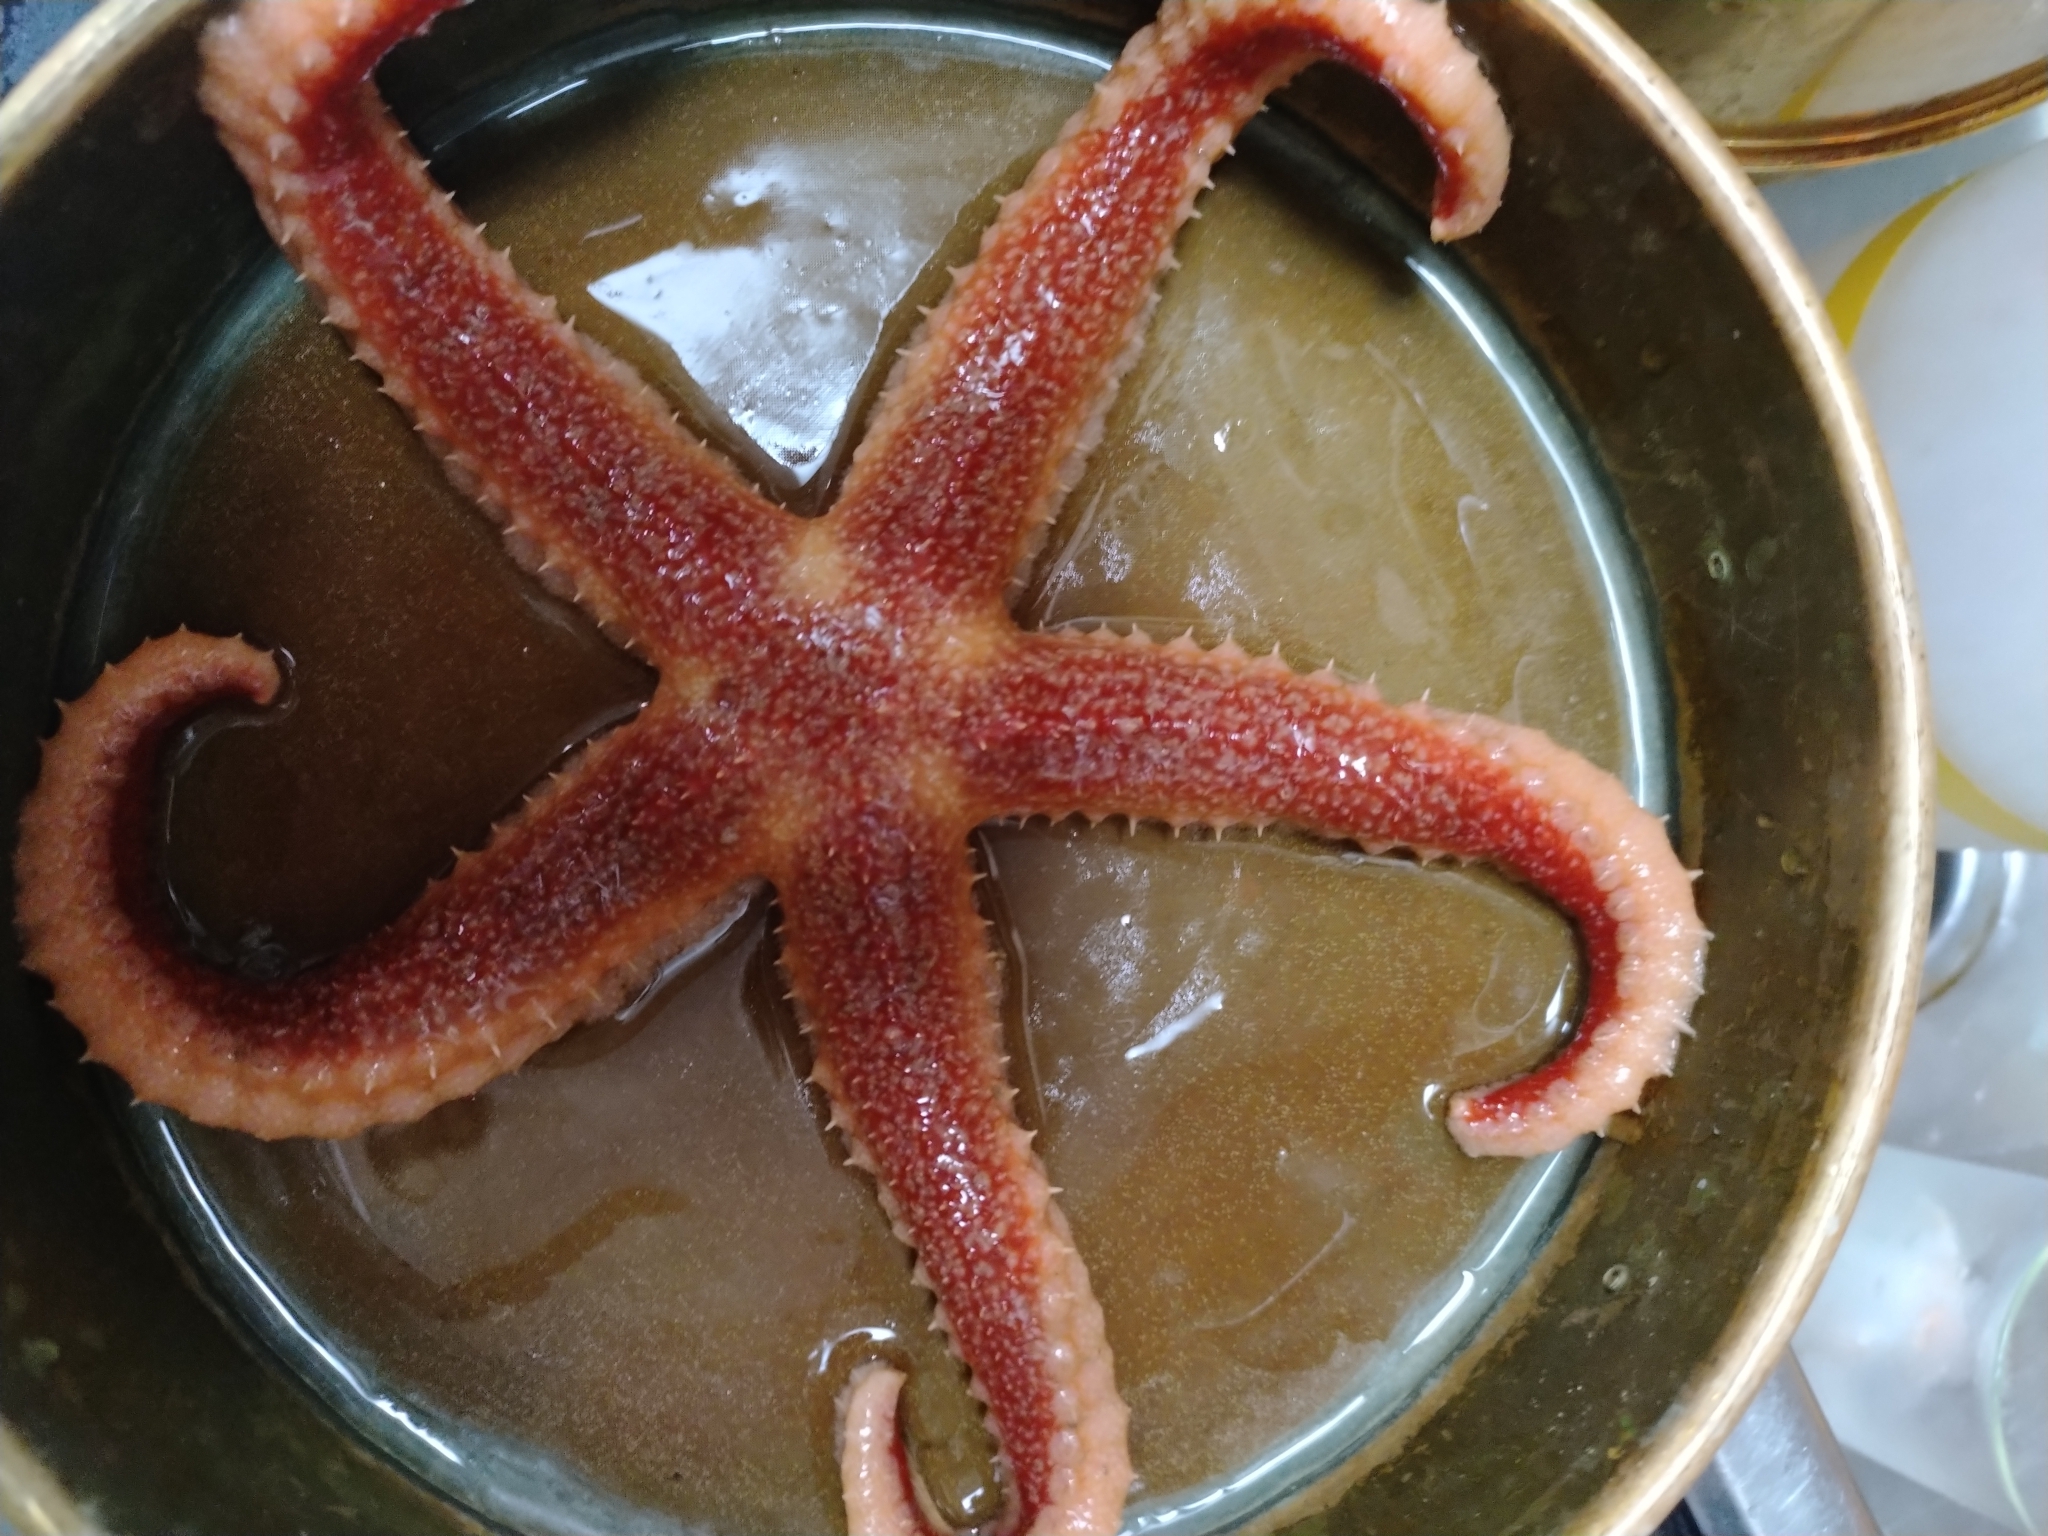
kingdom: Animalia
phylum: Echinodermata
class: Asteroidea
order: Forcipulatida
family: Asteriidae
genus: Urasterias
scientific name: Urasterias lincki
